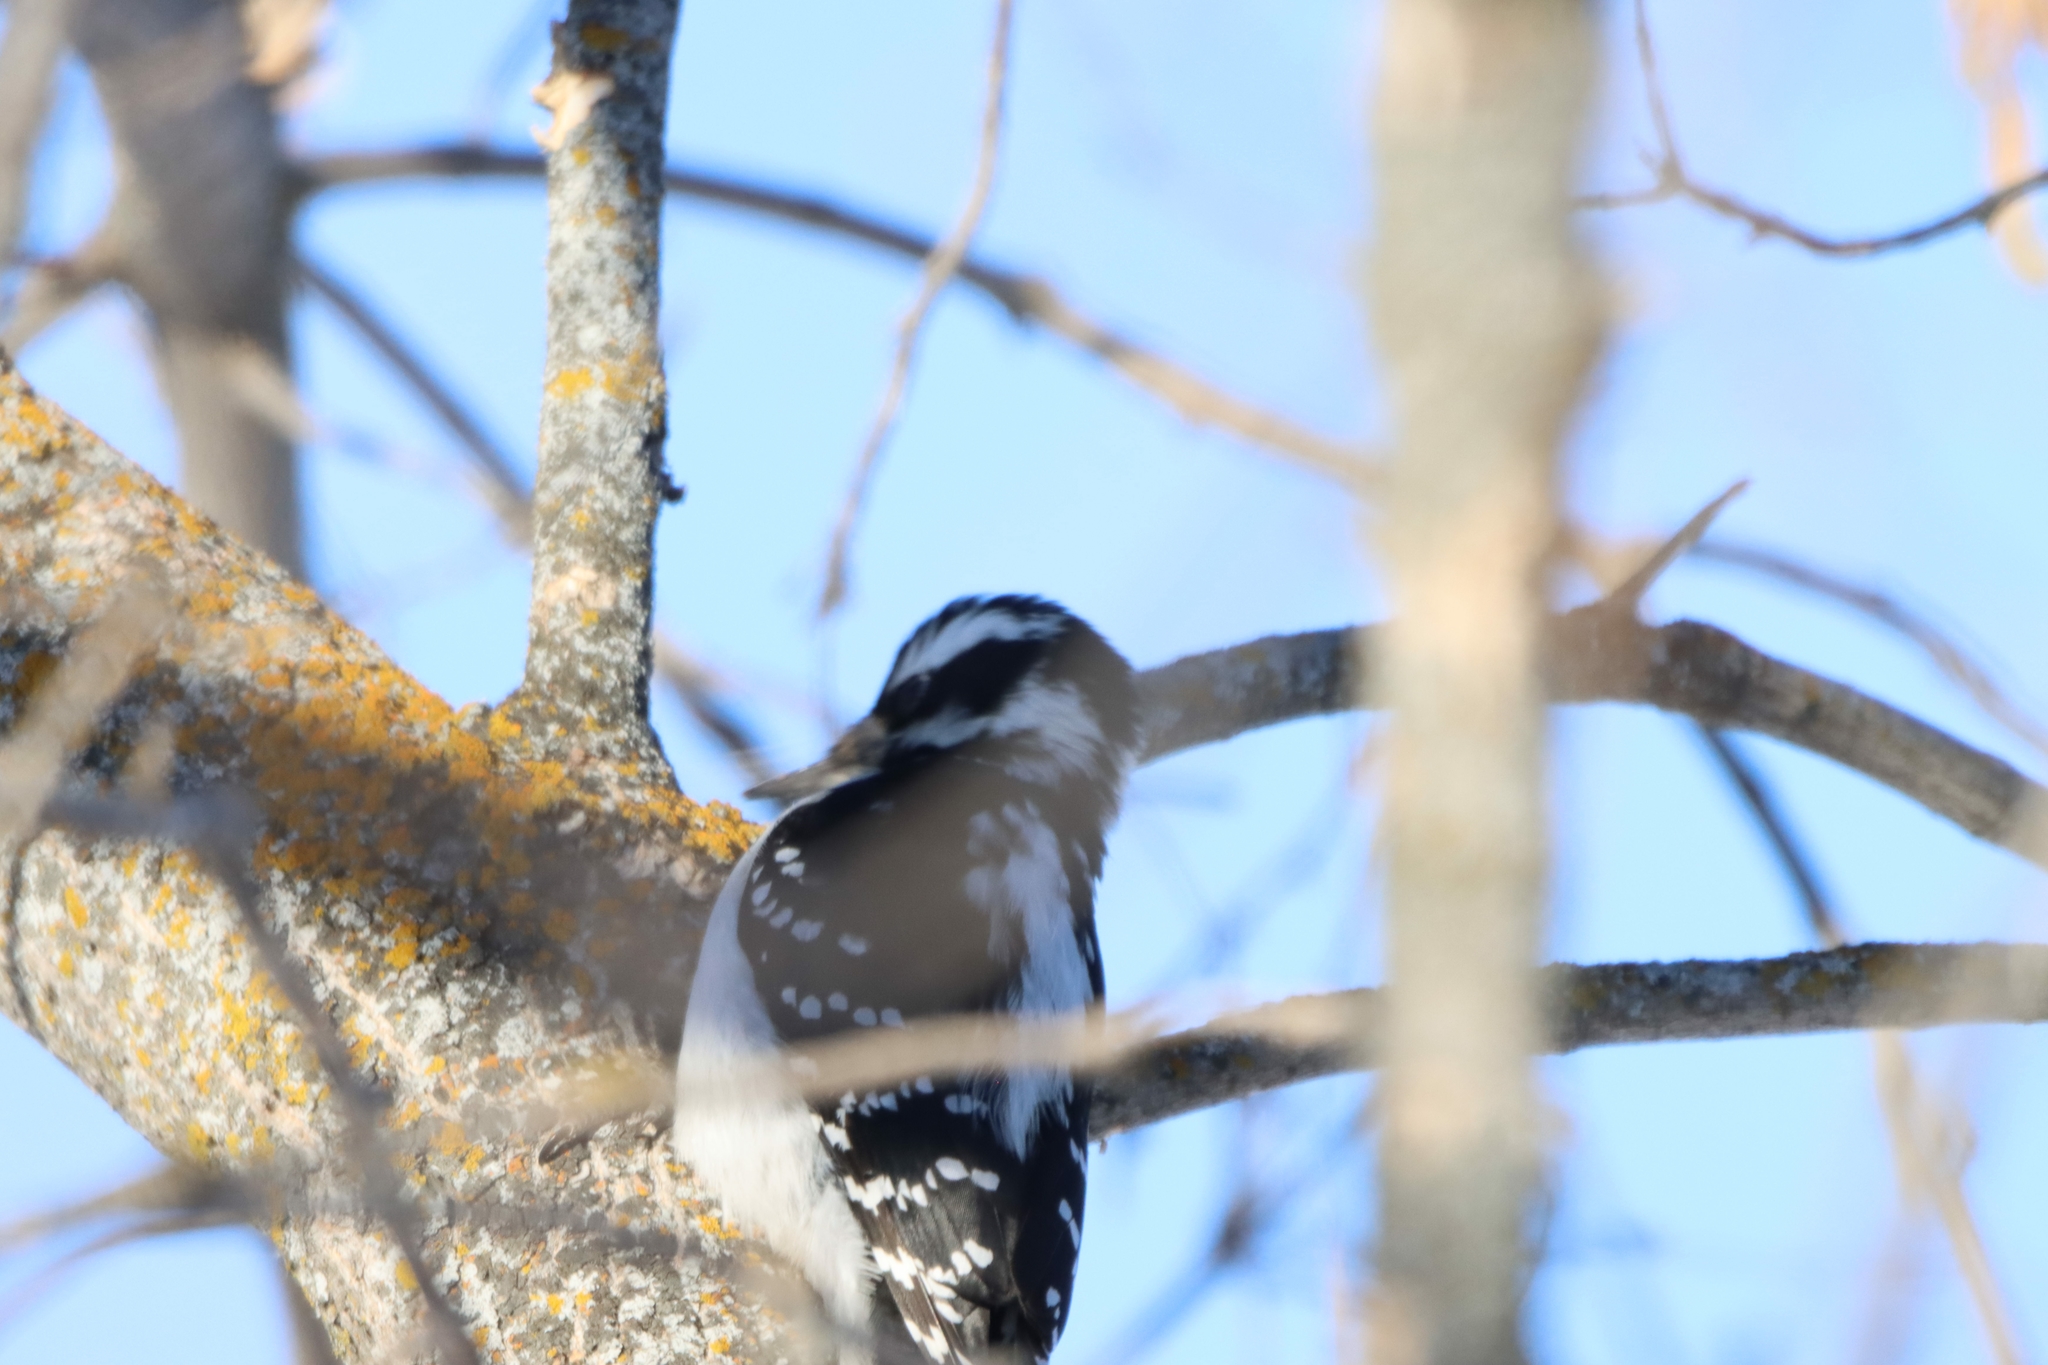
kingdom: Animalia
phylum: Chordata
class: Aves
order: Piciformes
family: Picidae
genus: Leuconotopicus
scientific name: Leuconotopicus villosus
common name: Hairy woodpecker
